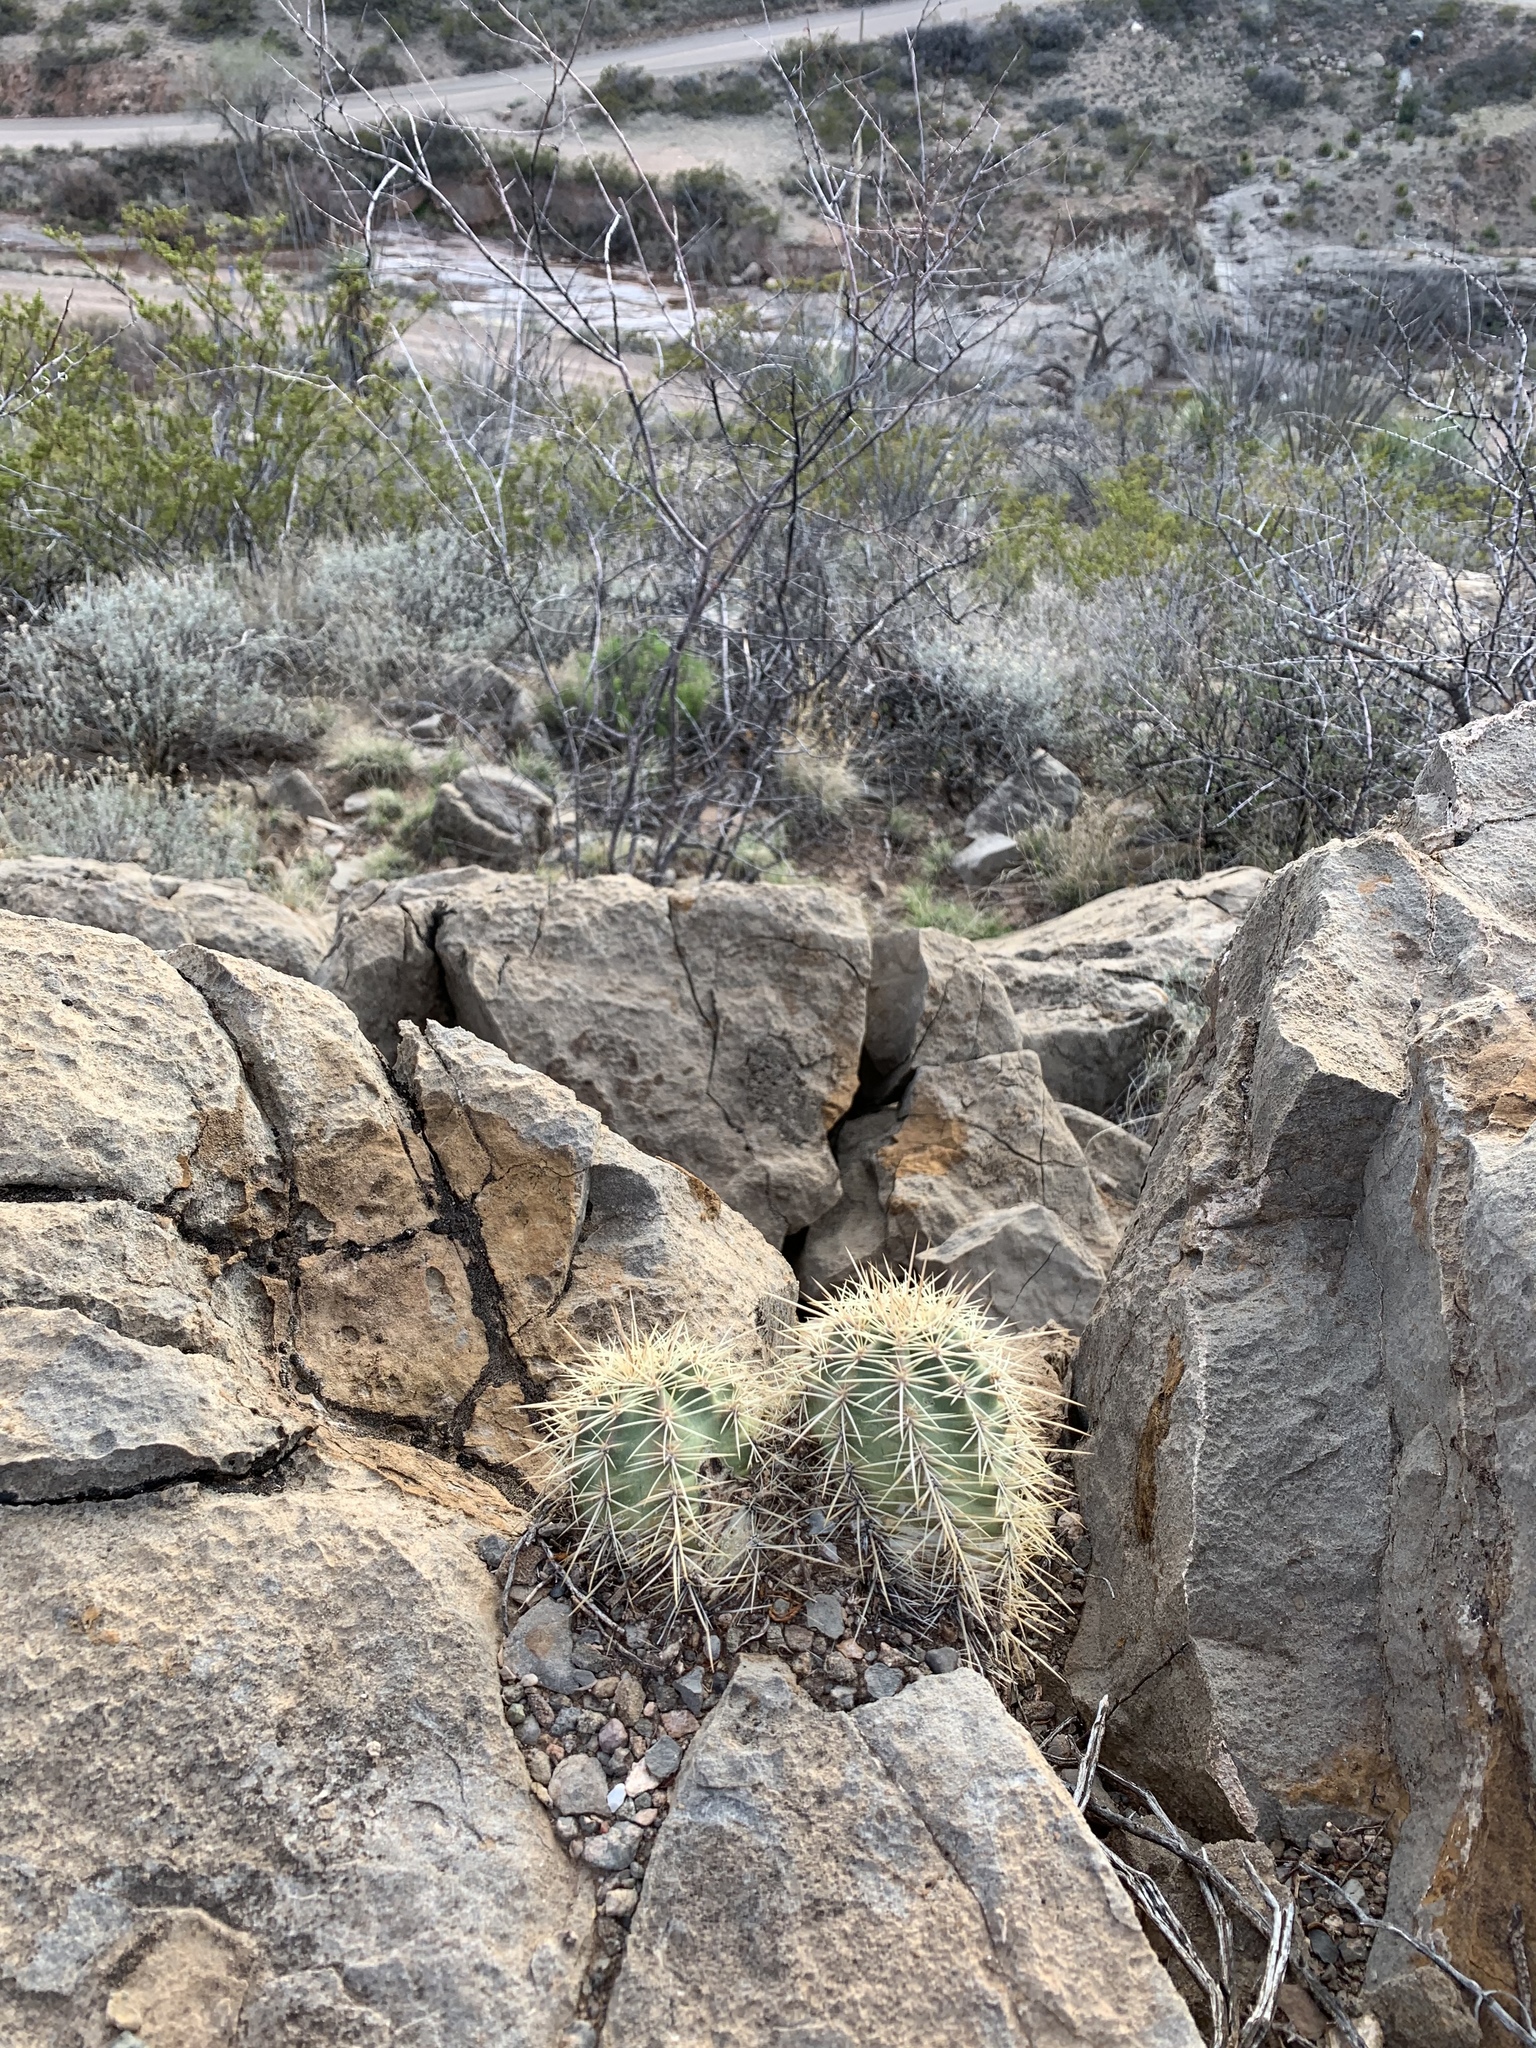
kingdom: Plantae
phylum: Tracheophyta
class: Magnoliopsida
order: Caryophyllales
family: Cactaceae
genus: Echinocereus
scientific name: Echinocereus coccineus
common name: Scarlet hedgehog cactus
